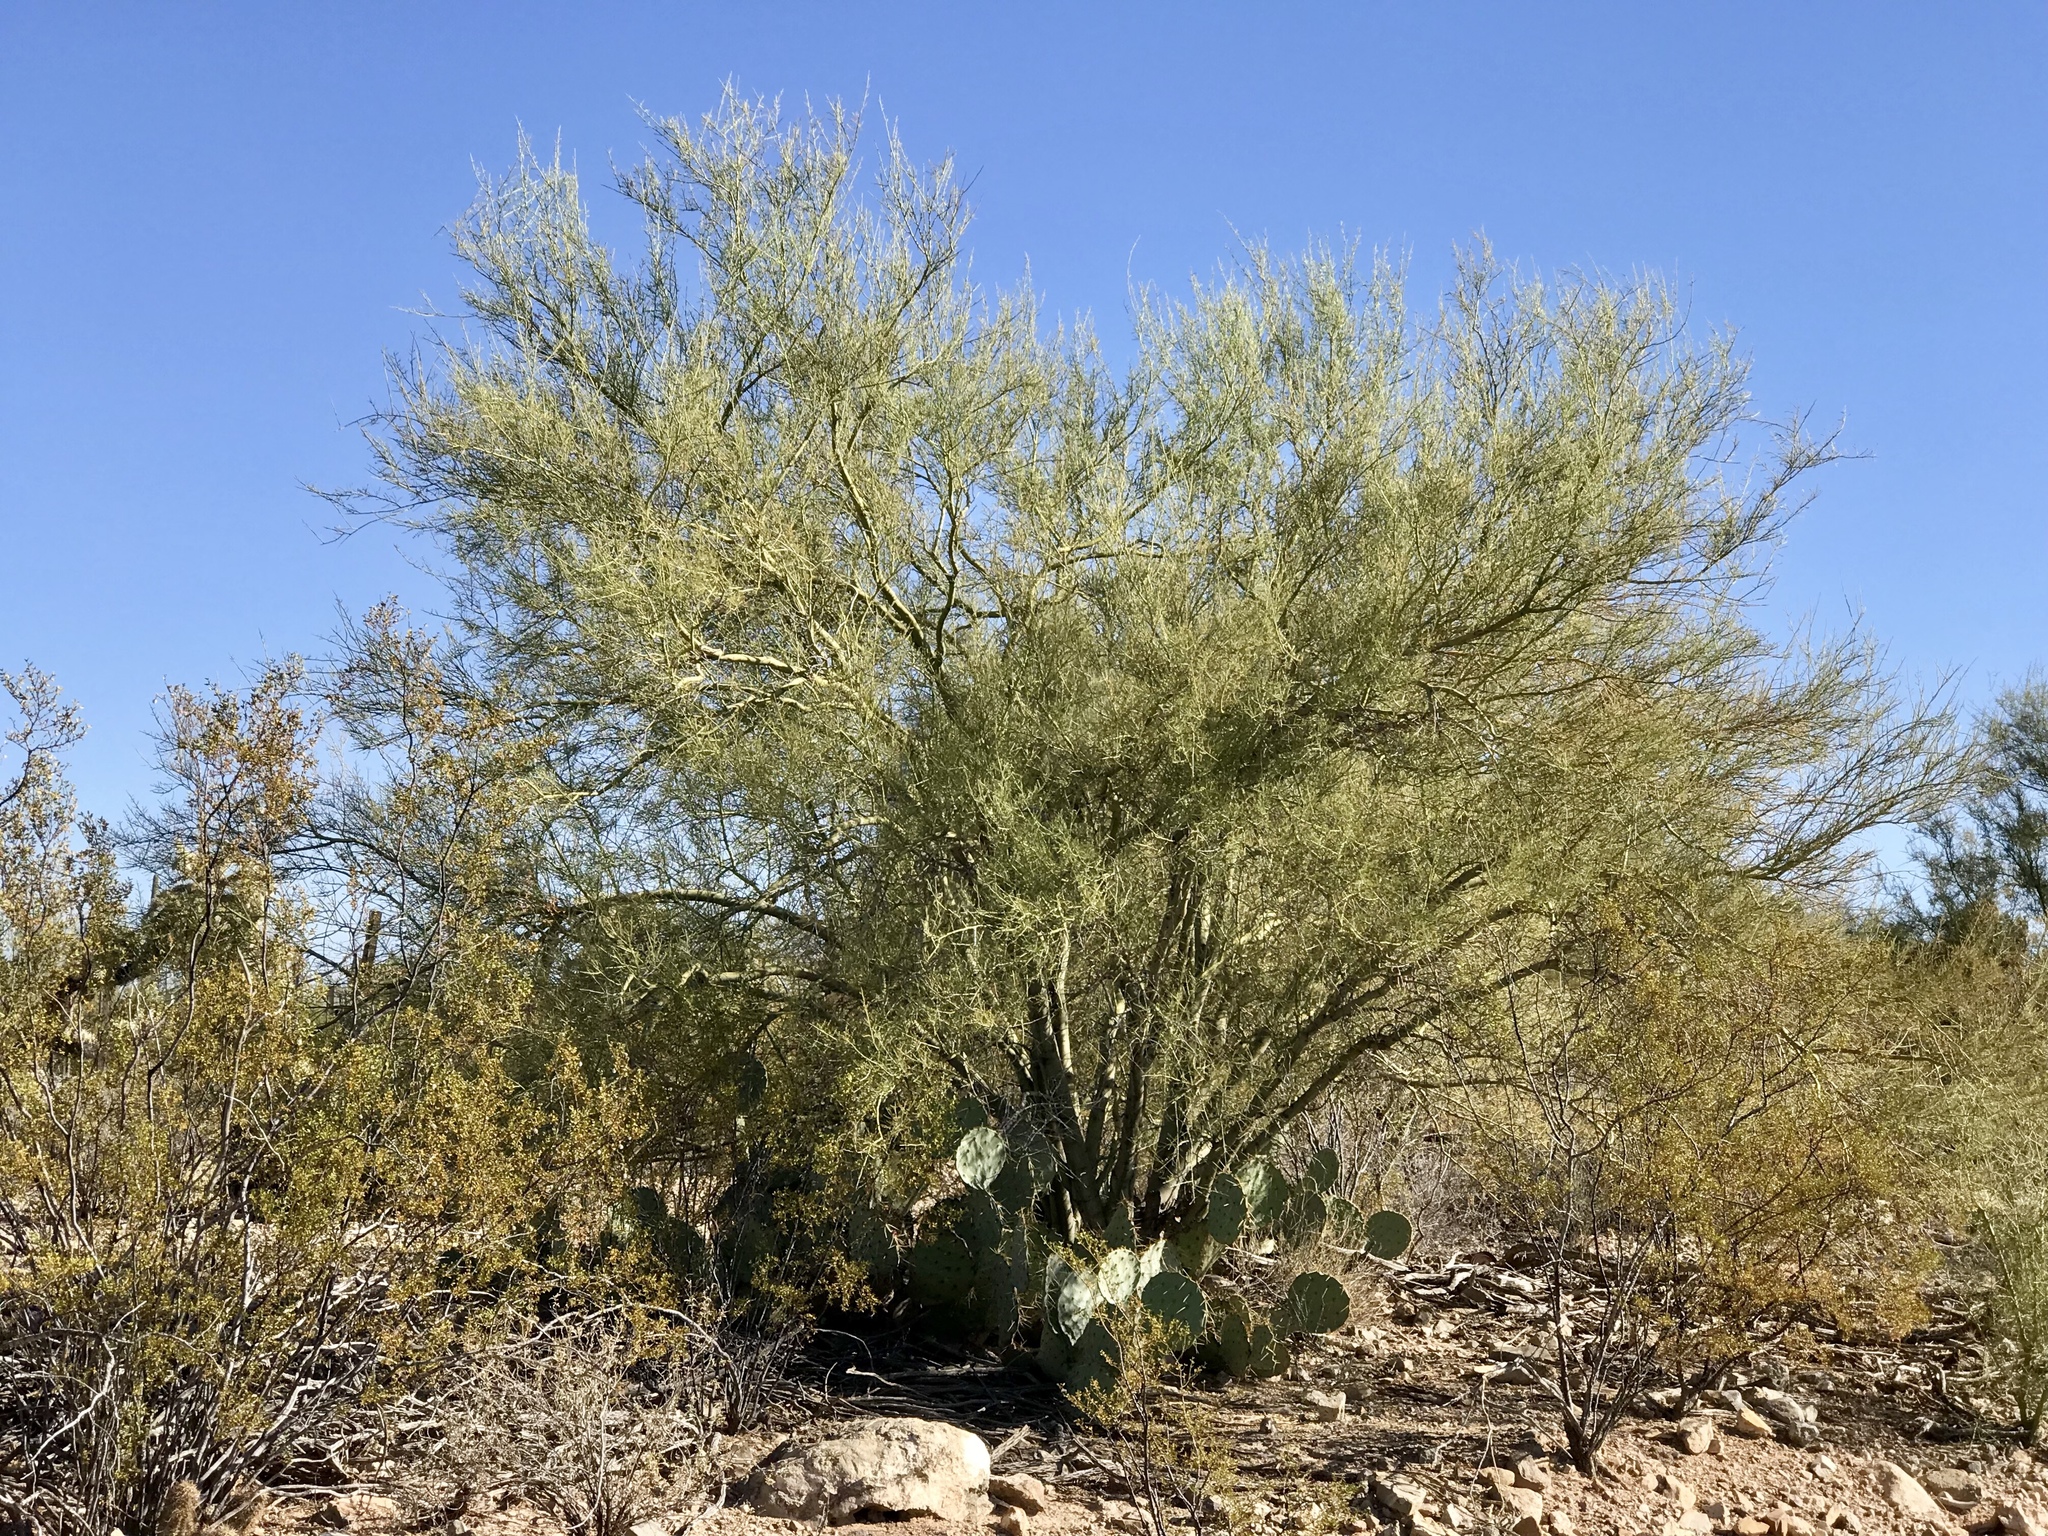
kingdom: Plantae
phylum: Tracheophyta
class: Magnoliopsida
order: Fabales
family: Fabaceae
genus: Parkinsonia
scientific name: Parkinsonia microphylla
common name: Yellow paloverde
